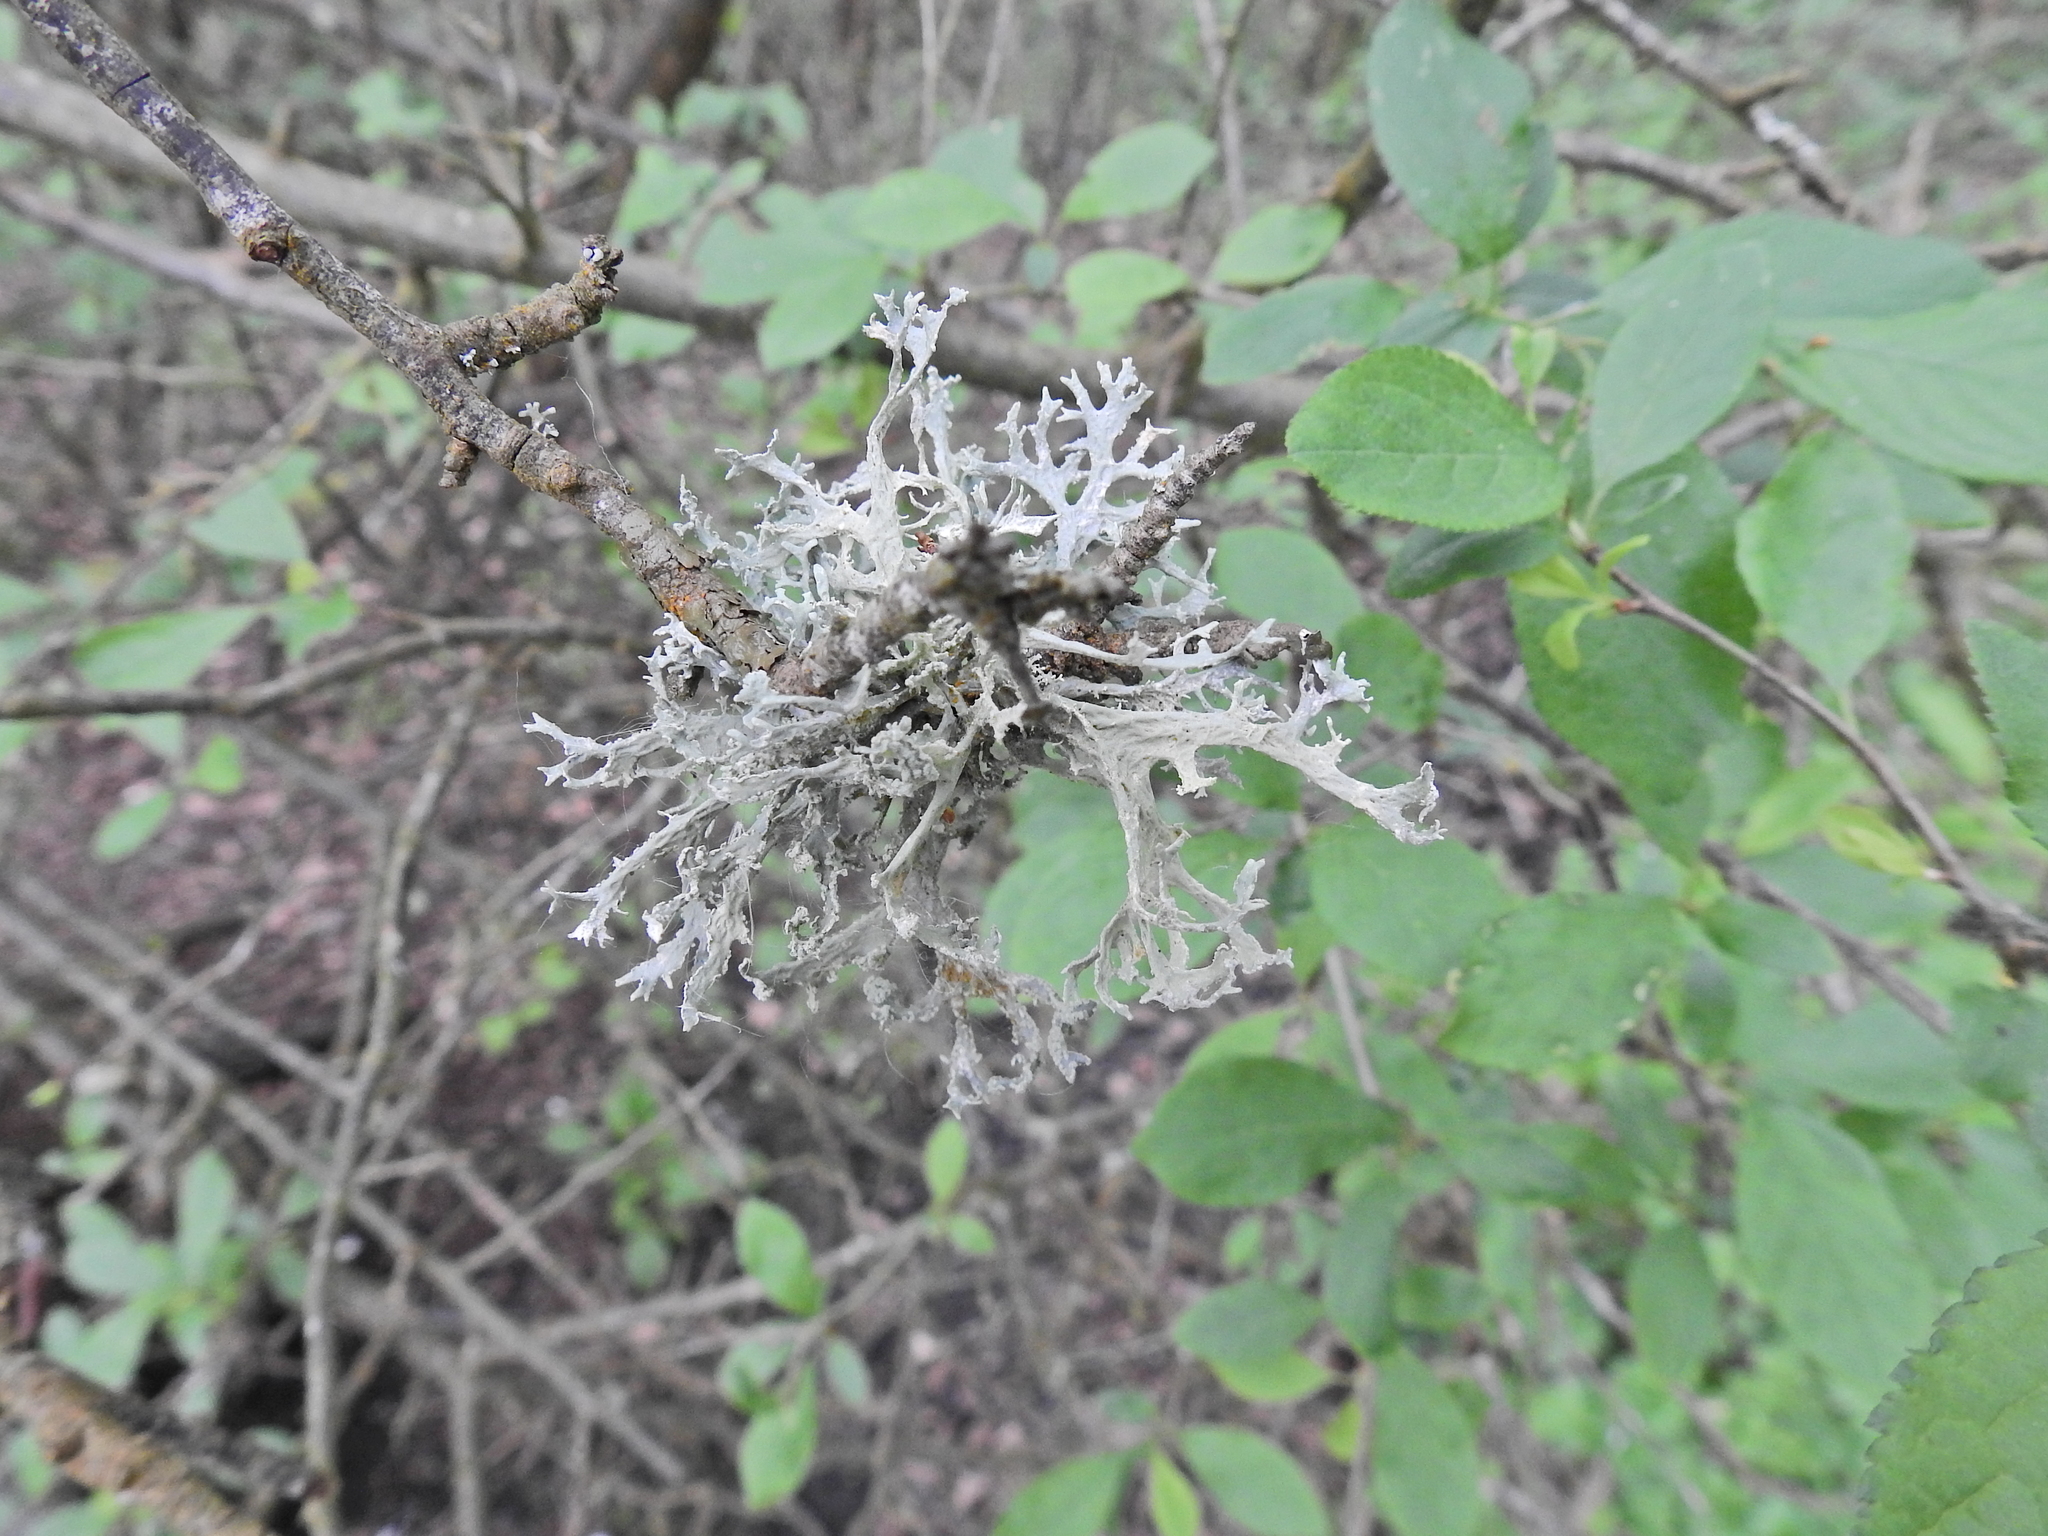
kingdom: Fungi
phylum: Ascomycota
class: Lecanoromycetes
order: Lecanorales
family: Parmeliaceae
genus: Evernia
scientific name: Evernia prunastri
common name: Oak moss
